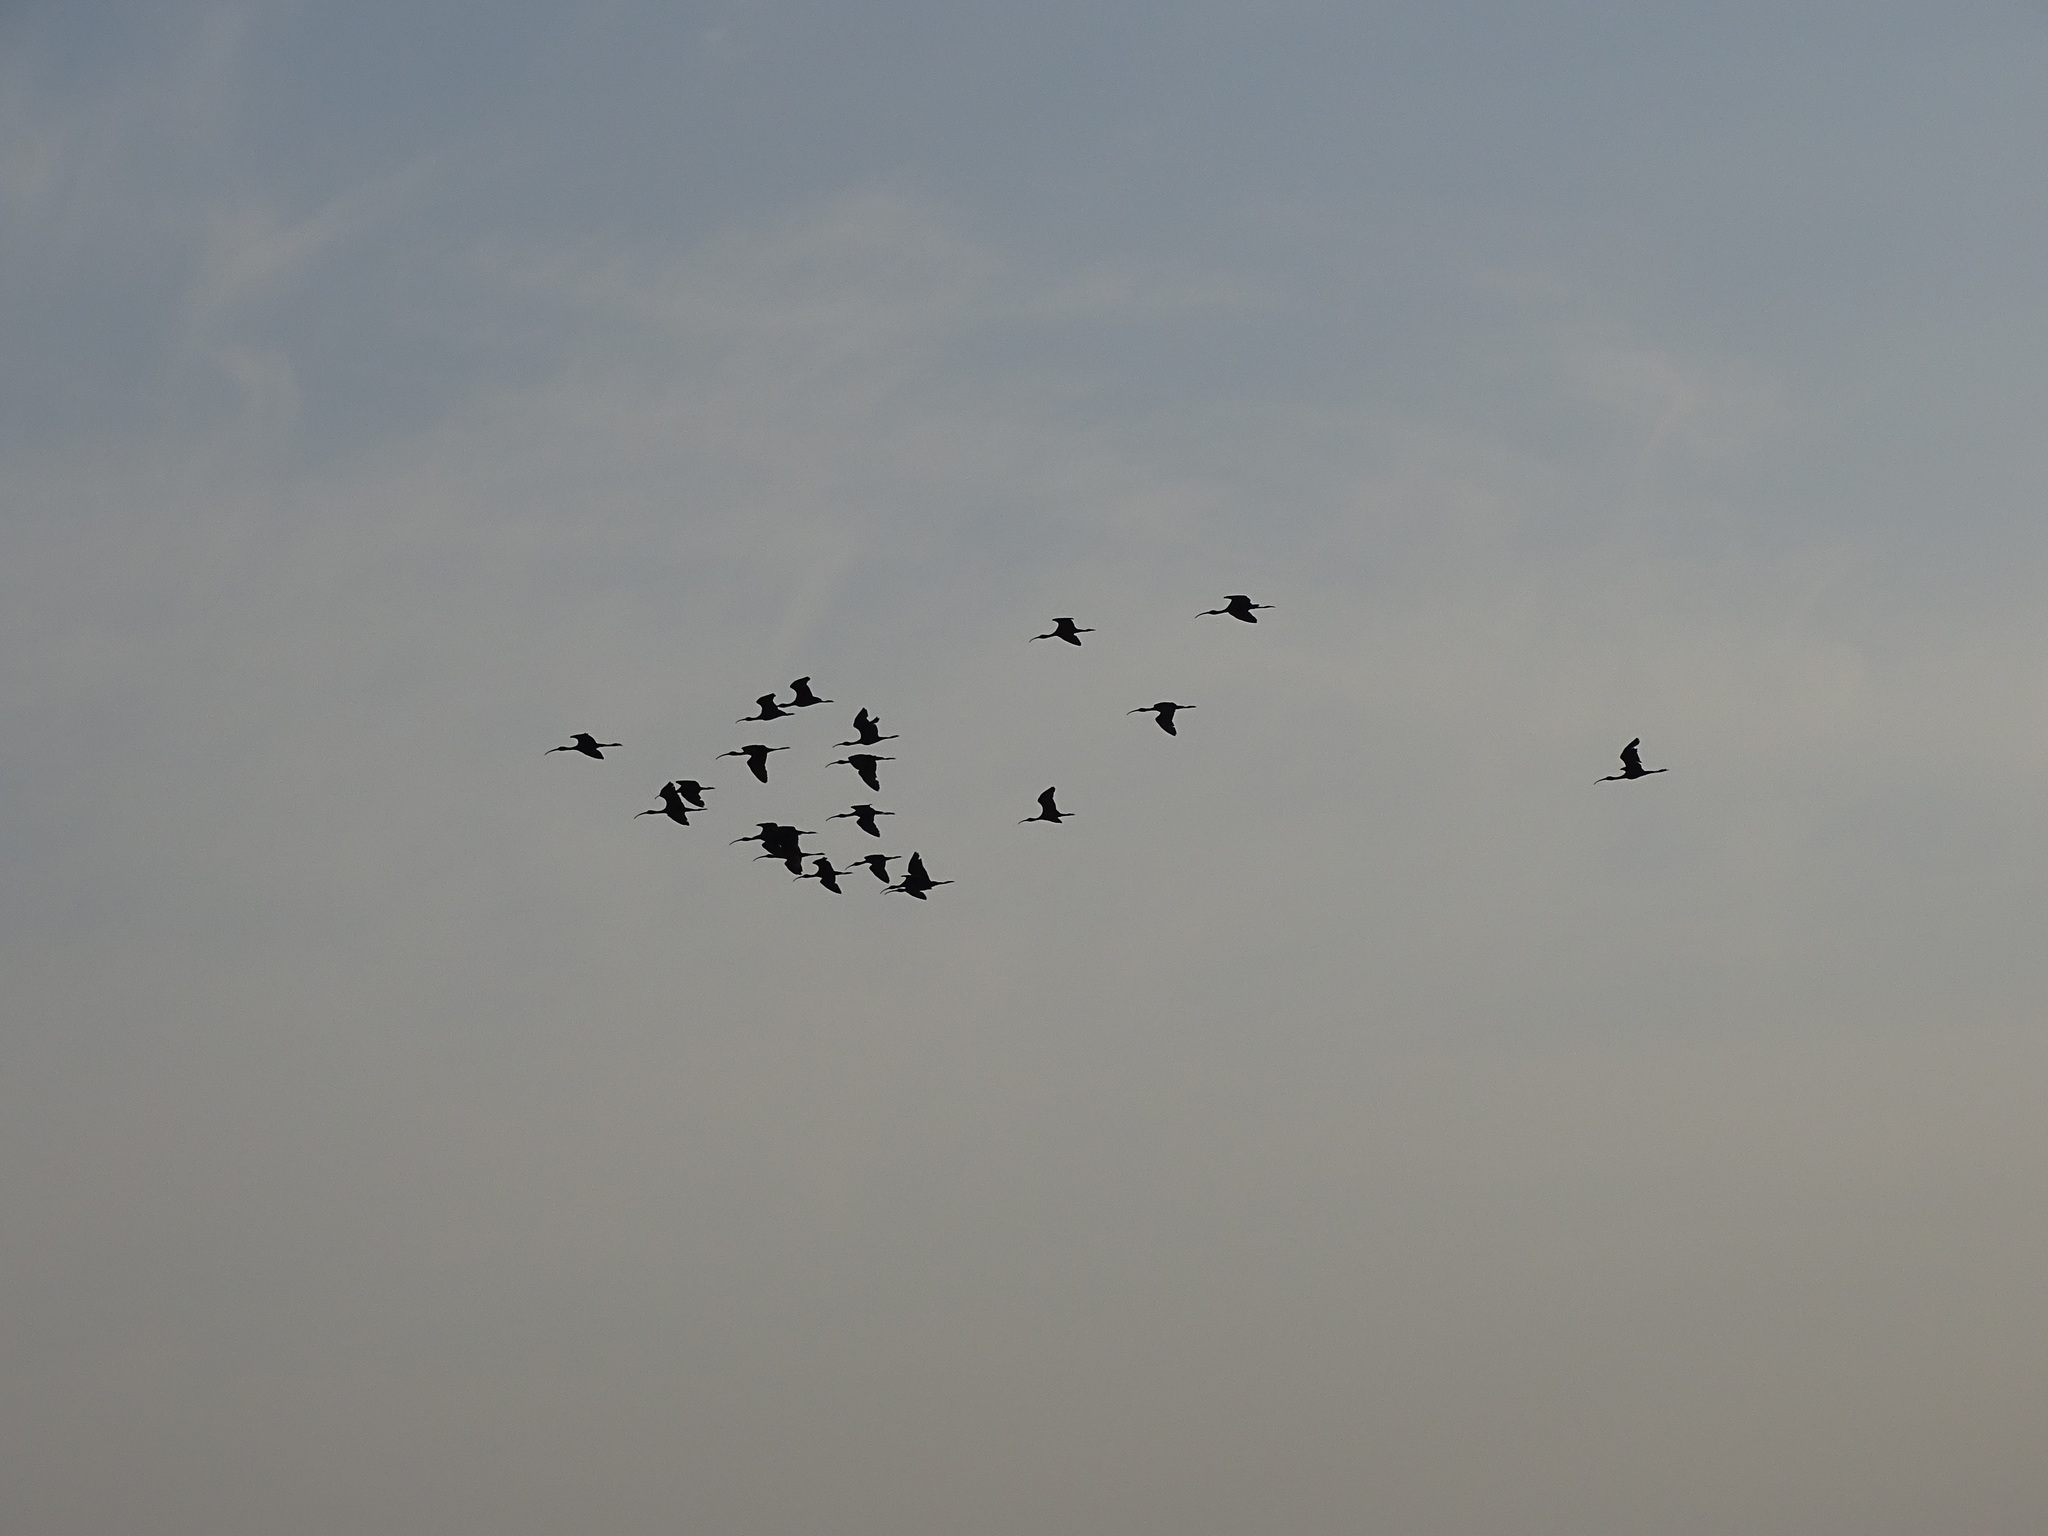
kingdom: Animalia
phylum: Chordata
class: Aves
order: Pelecaniformes
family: Threskiornithidae
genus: Plegadis
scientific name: Plegadis chihi
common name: White-faced ibis
